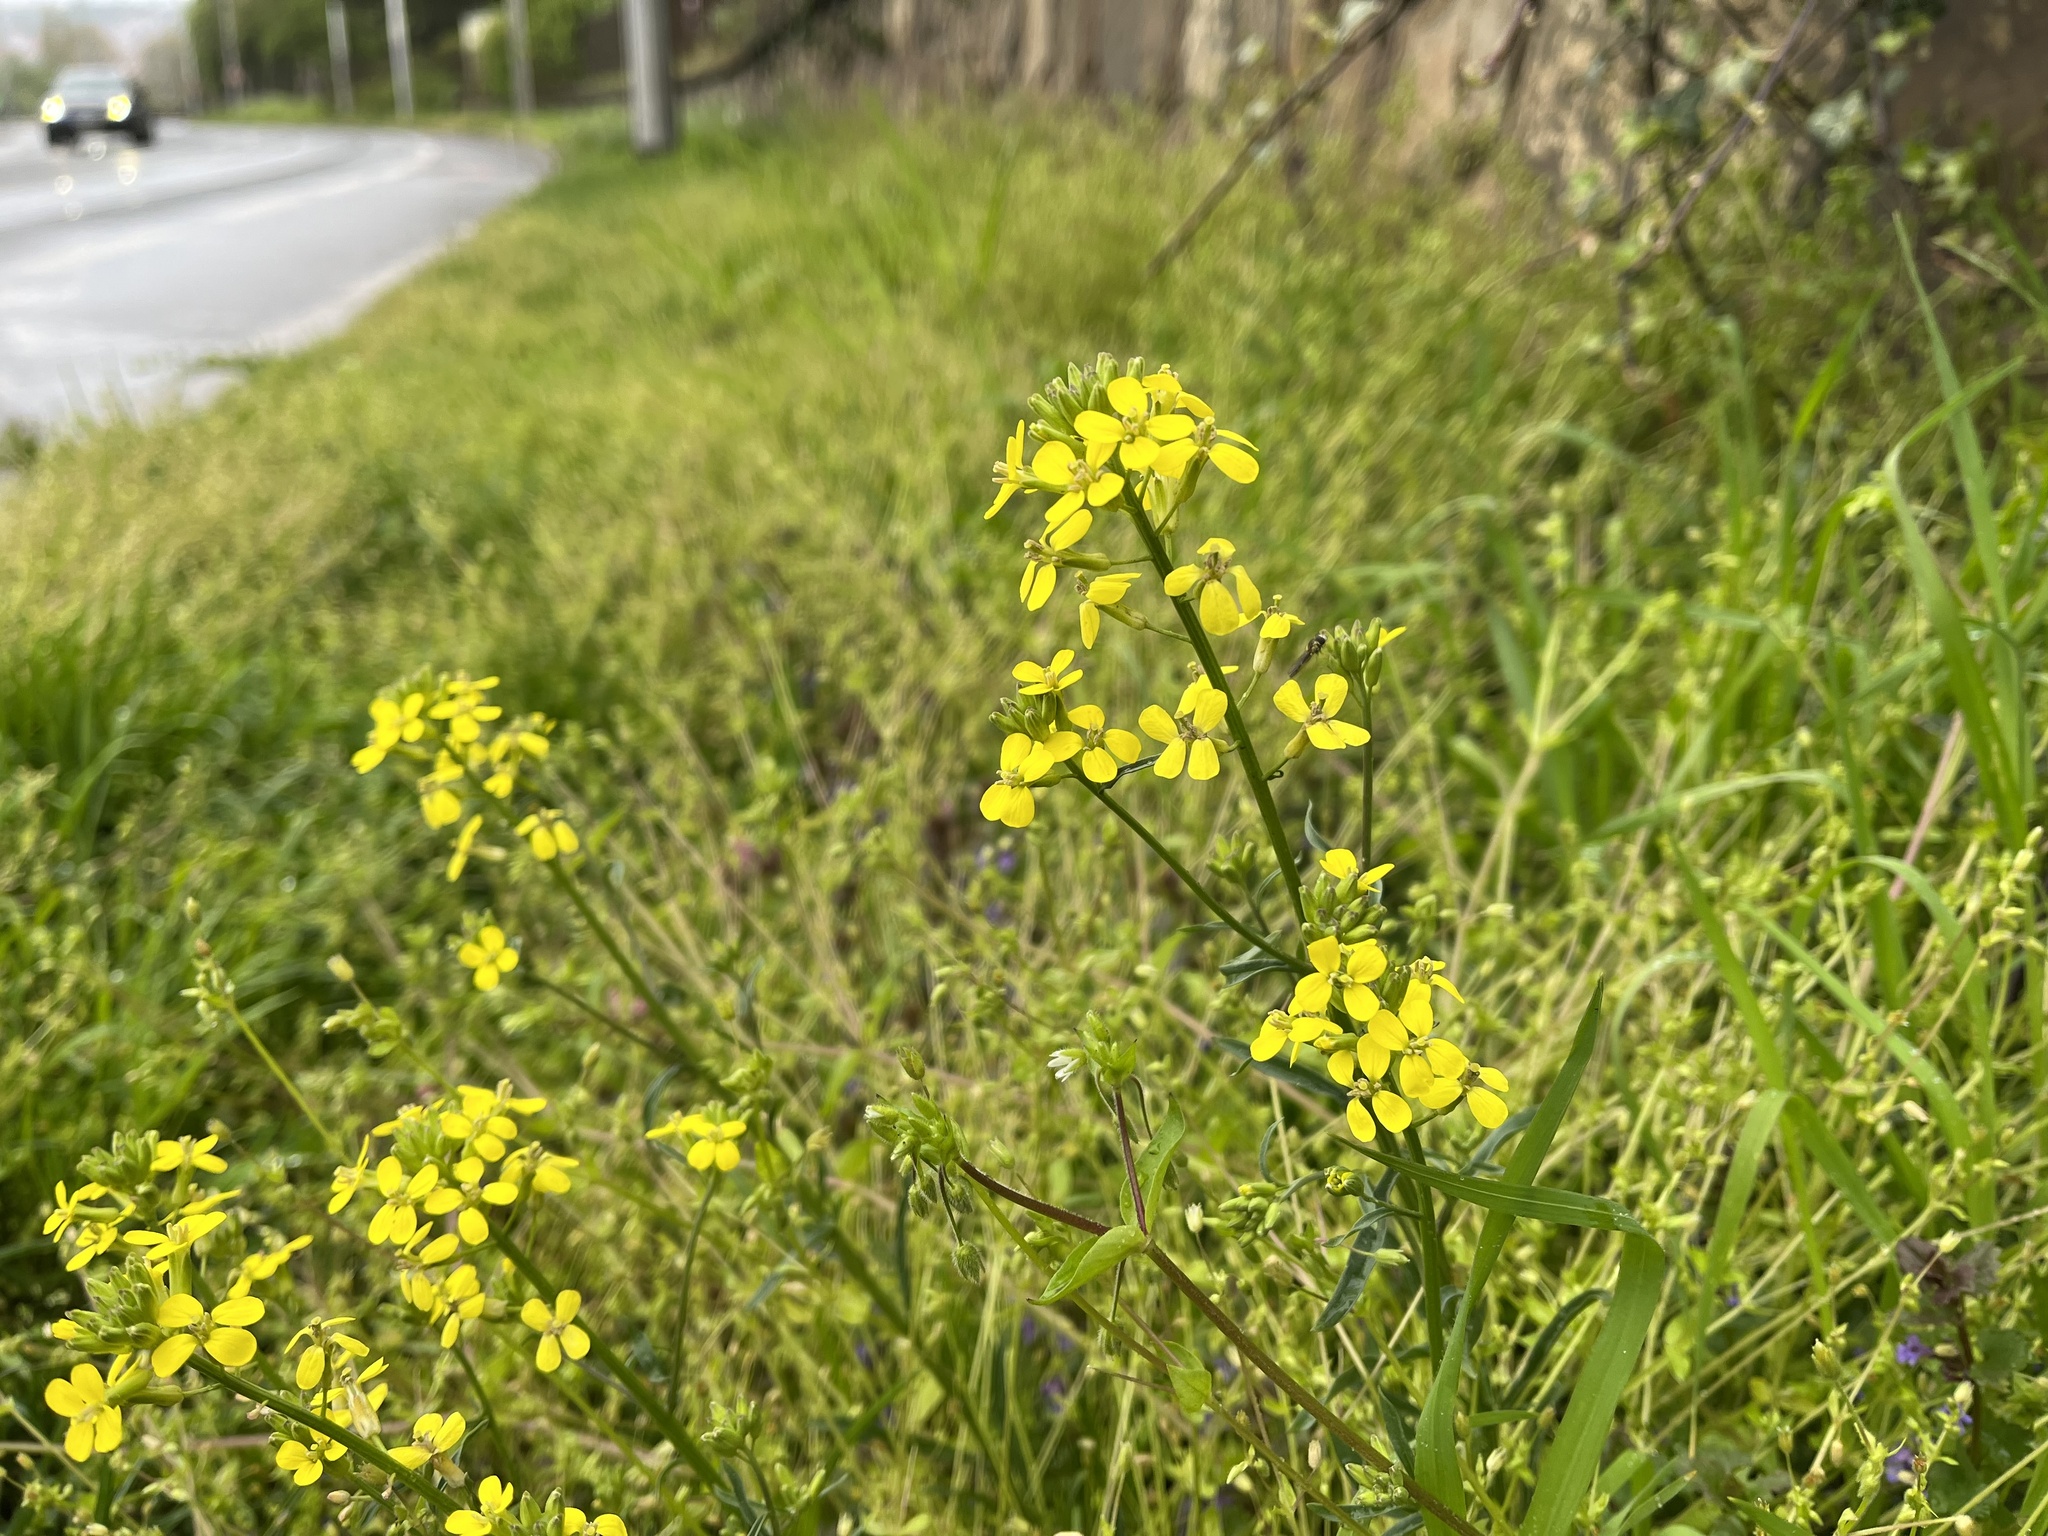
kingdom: Plantae
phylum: Tracheophyta
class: Magnoliopsida
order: Brassicales
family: Brassicaceae
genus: Erysimum
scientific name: Erysimum crepidifolium
